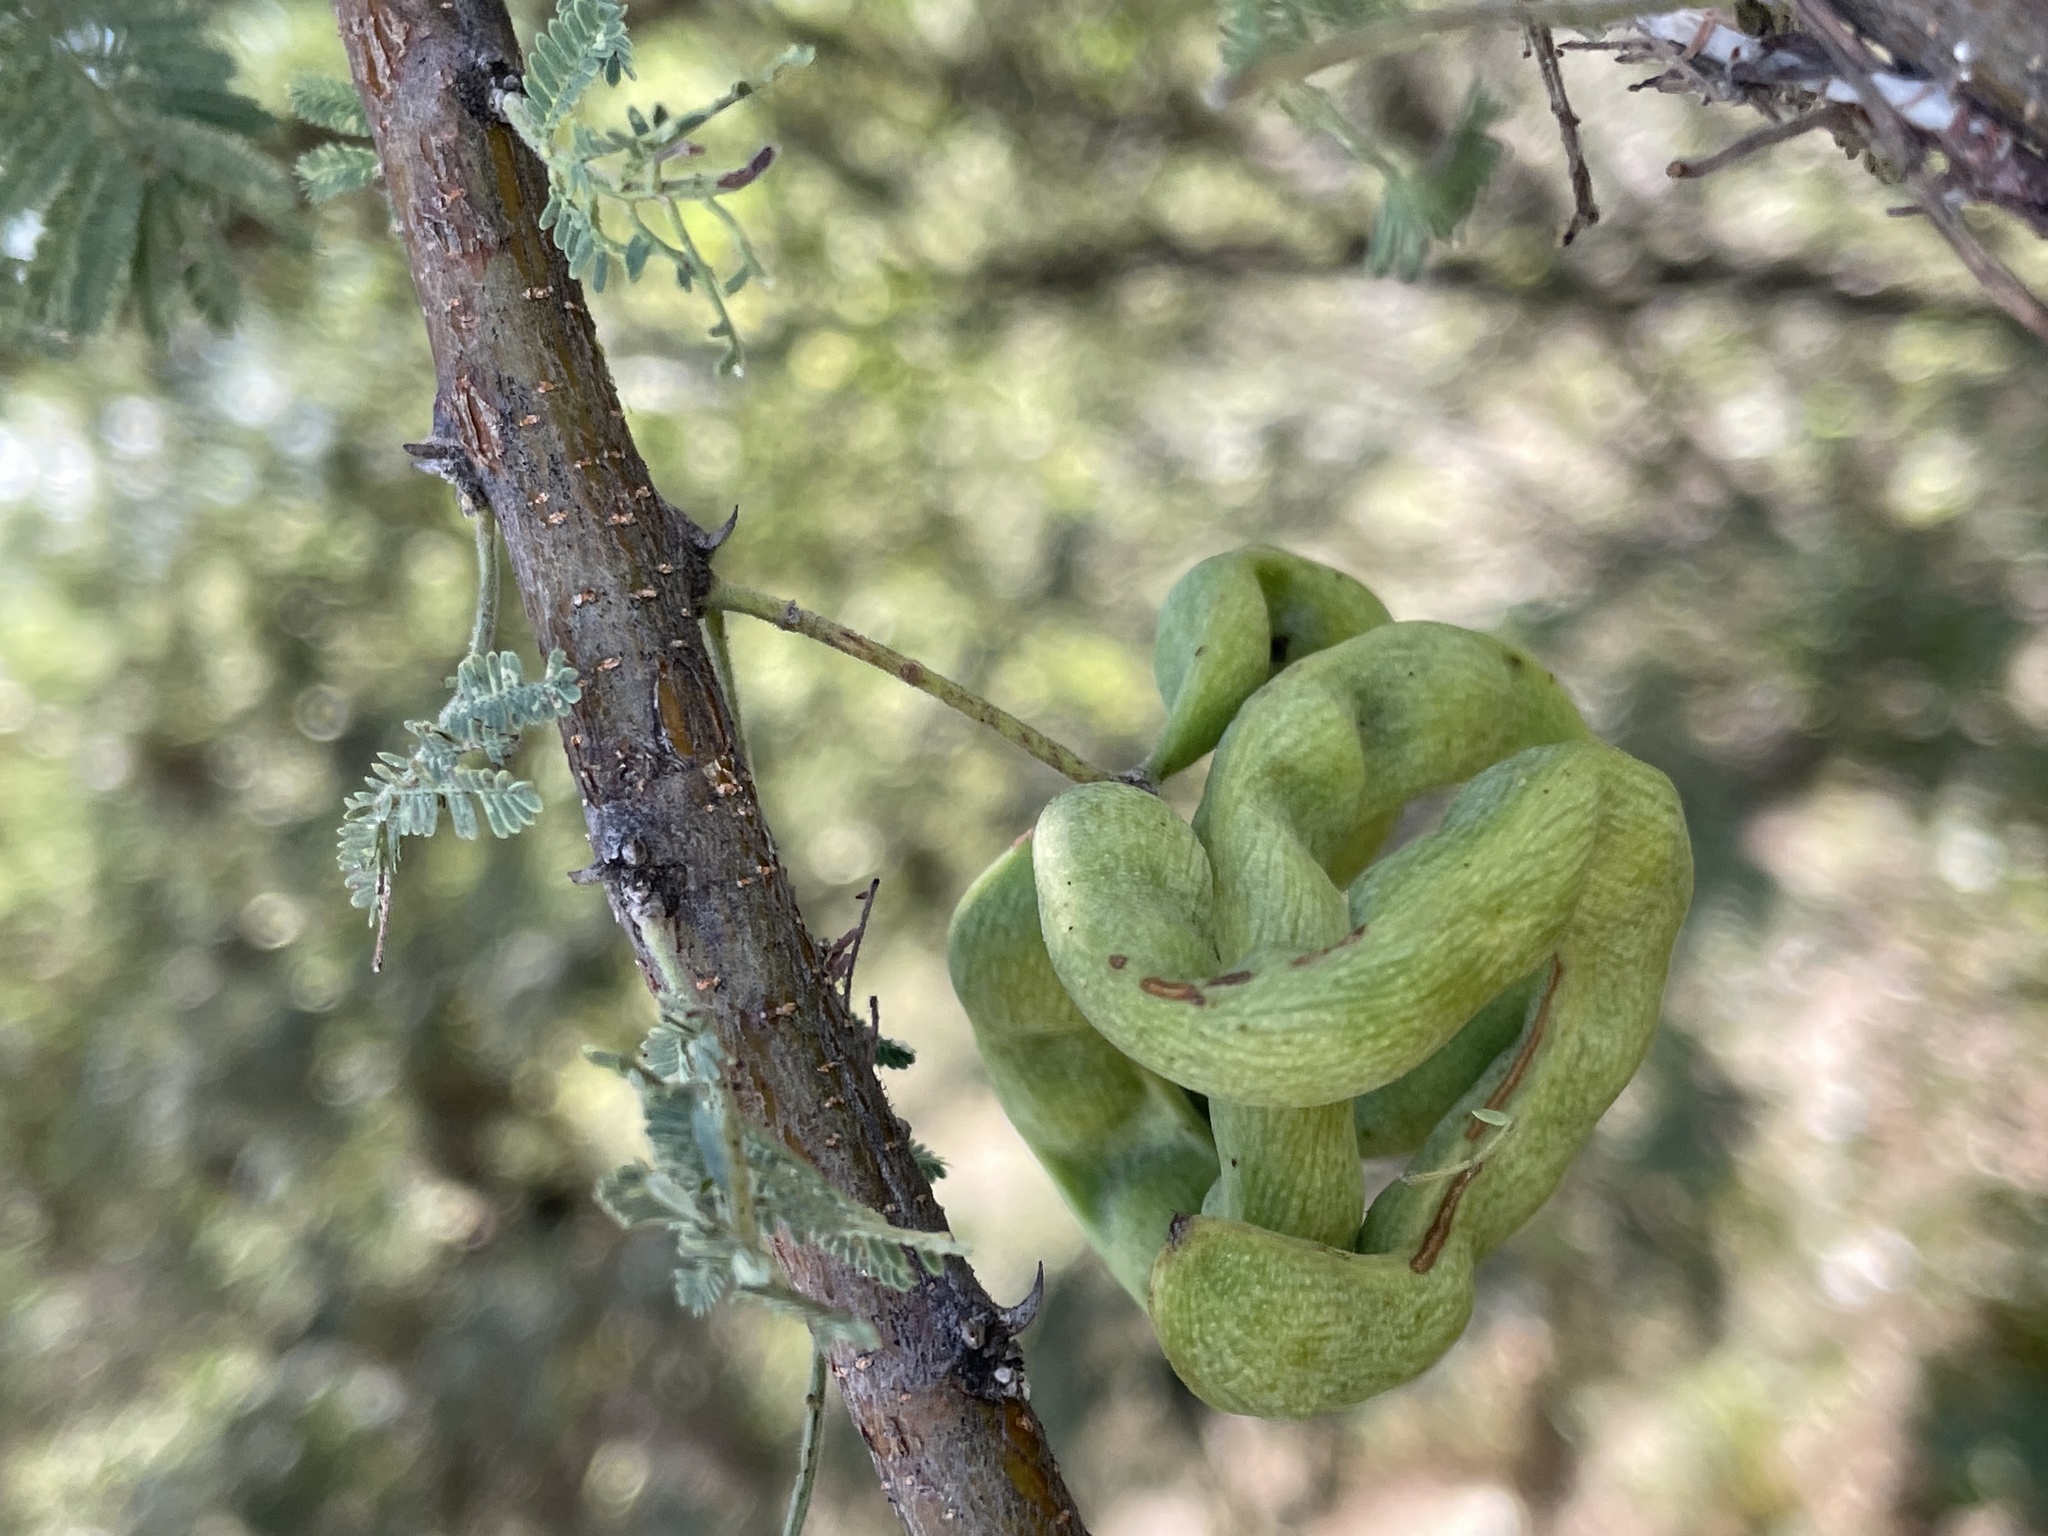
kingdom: Plantae
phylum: Tracheophyta
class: Magnoliopsida
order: Fabales
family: Fabaceae
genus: Vachellia
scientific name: Vachellia tortilis
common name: Umbrella thorn acacia
